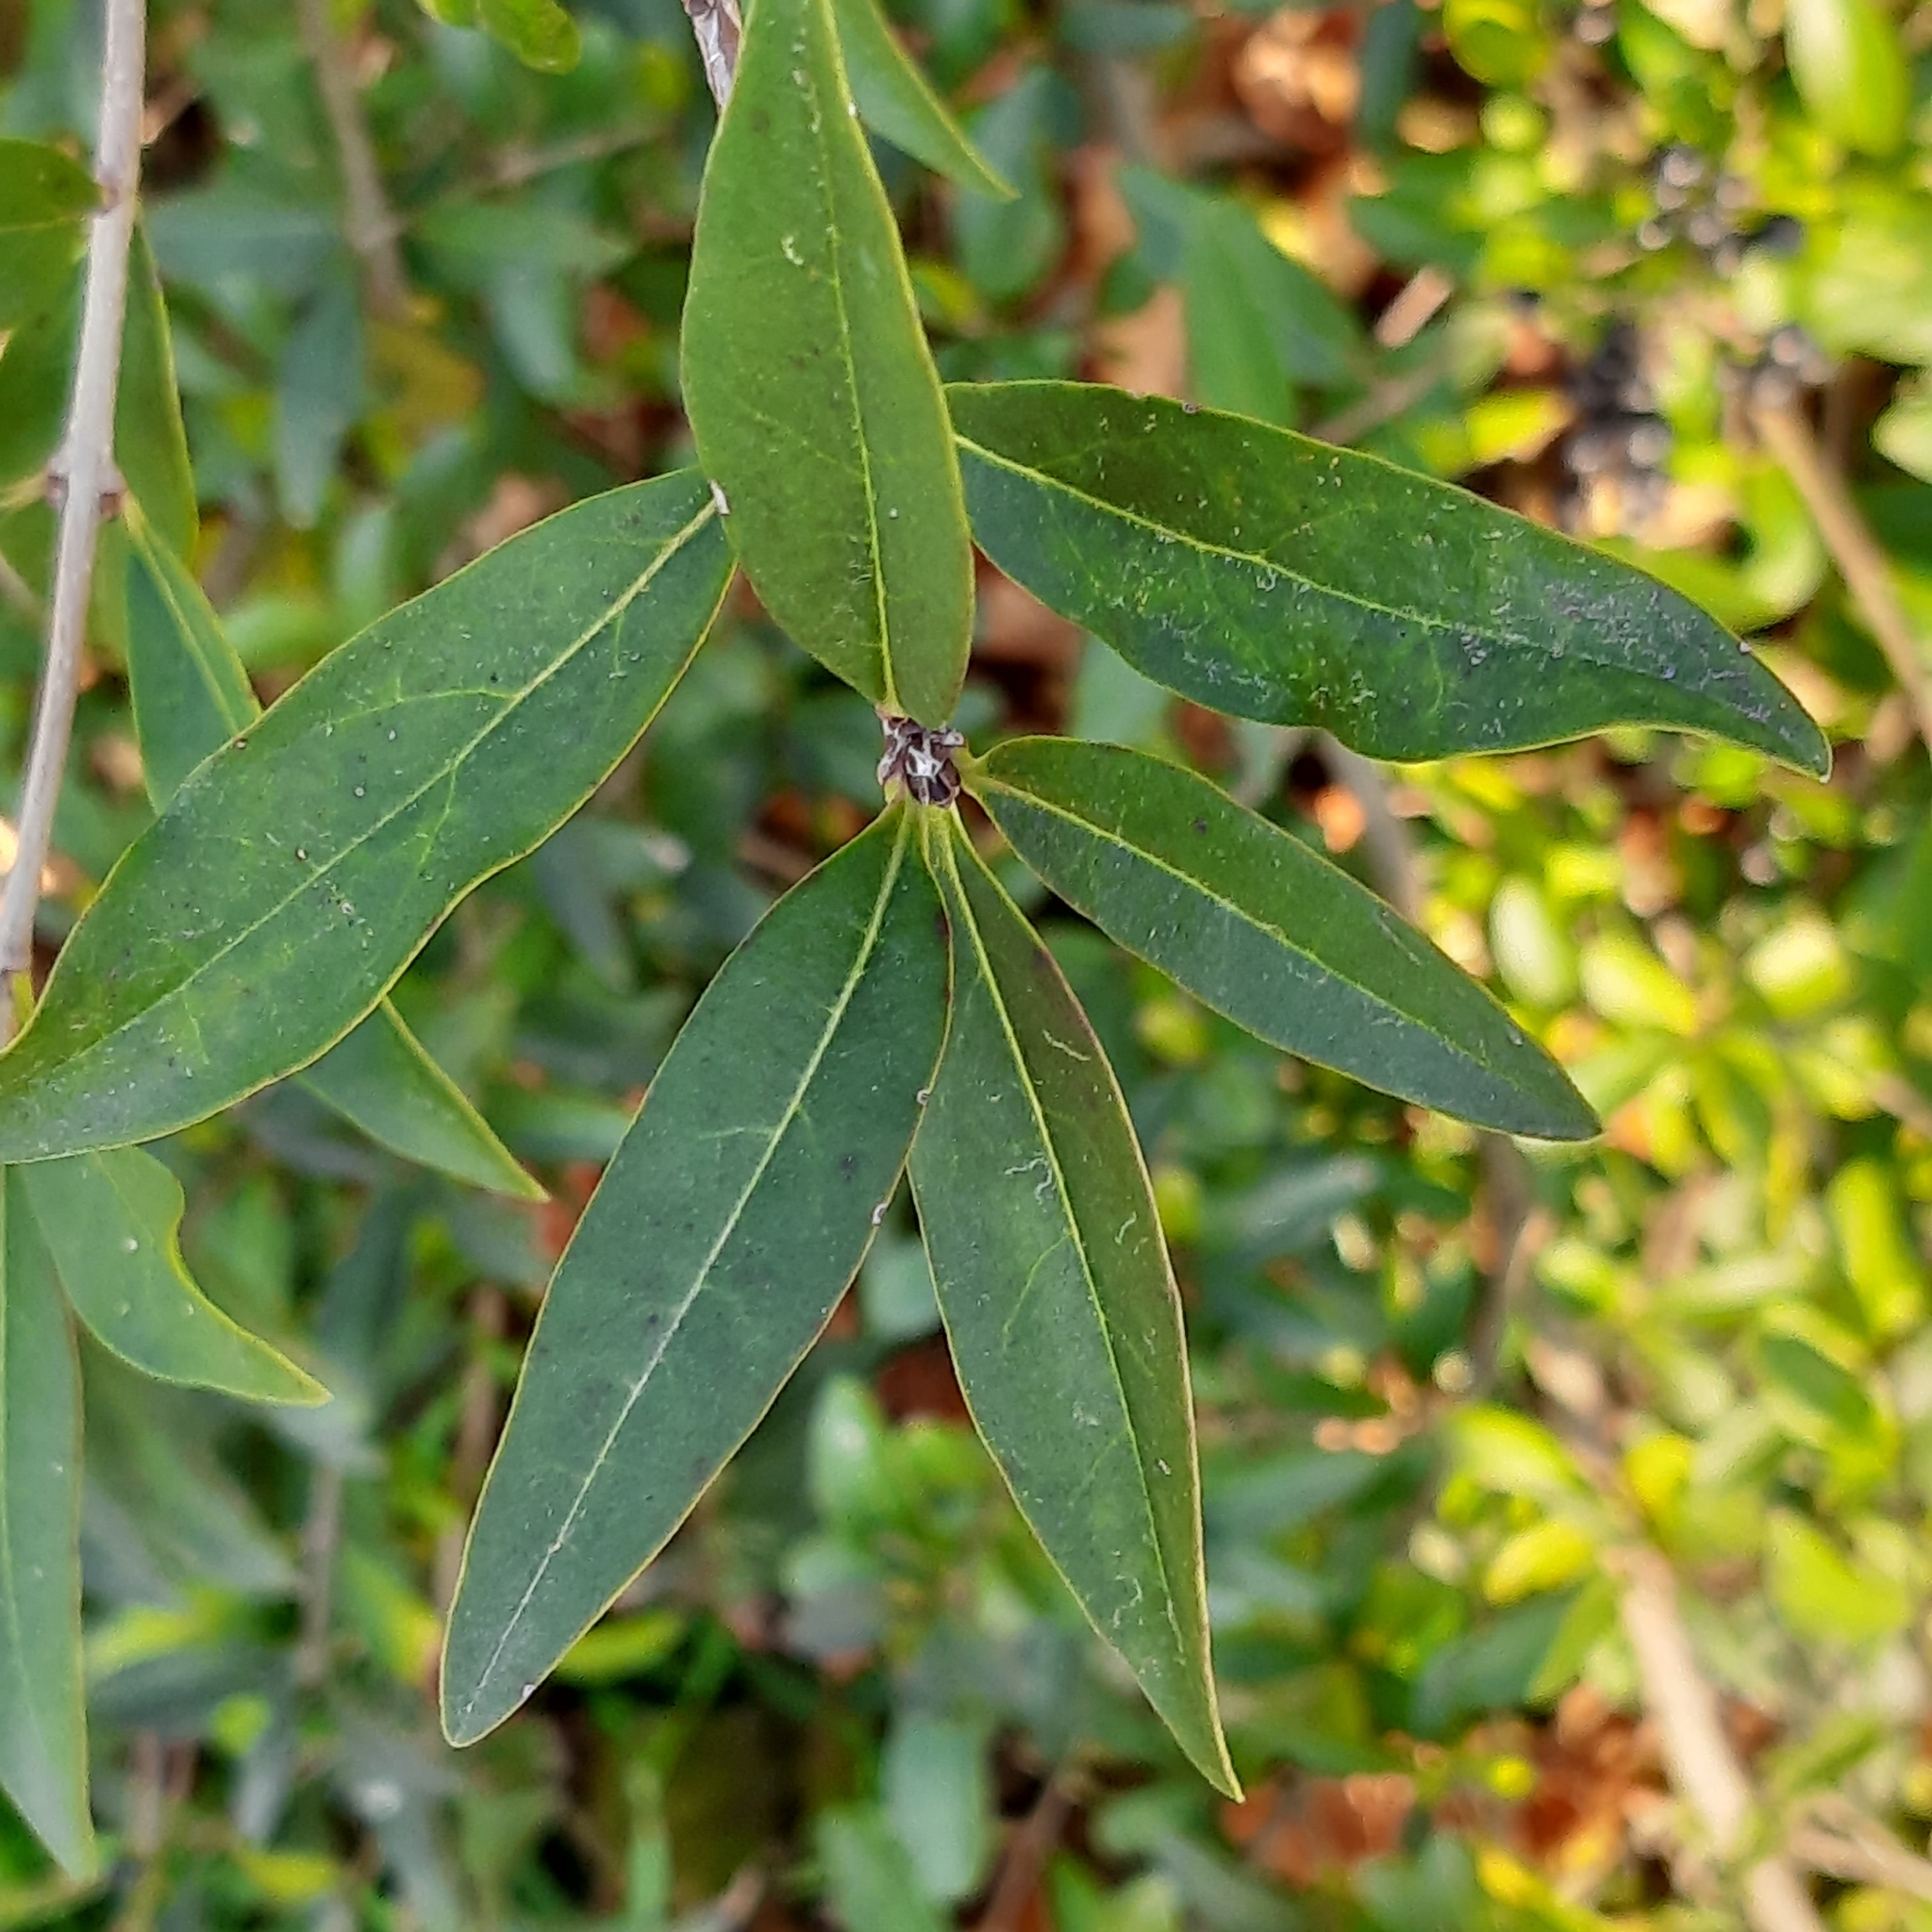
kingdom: Plantae
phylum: Tracheophyta
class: Magnoliopsida
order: Lamiales
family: Oleaceae
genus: Ligustrum
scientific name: Ligustrum vulgare
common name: Wild privet
